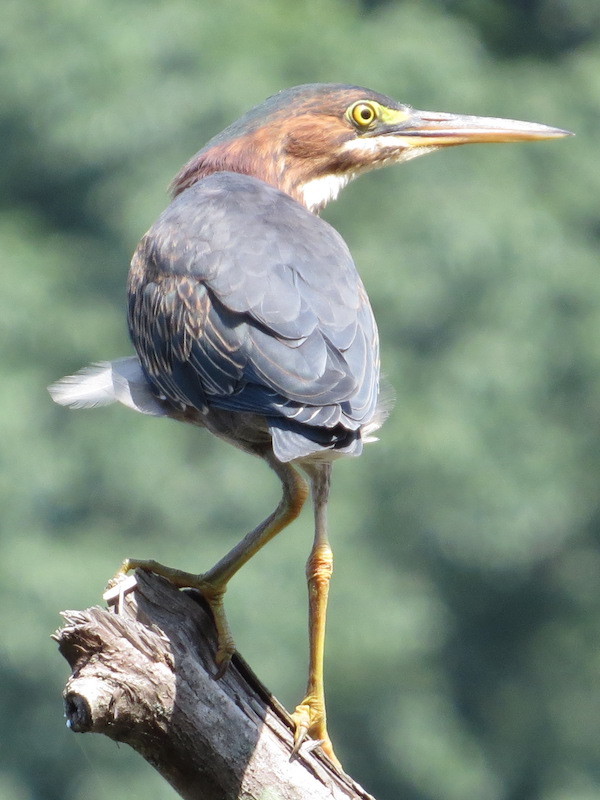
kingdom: Animalia
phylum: Chordata
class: Aves
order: Pelecaniformes
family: Ardeidae
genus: Butorides
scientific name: Butorides virescens
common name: Green heron
